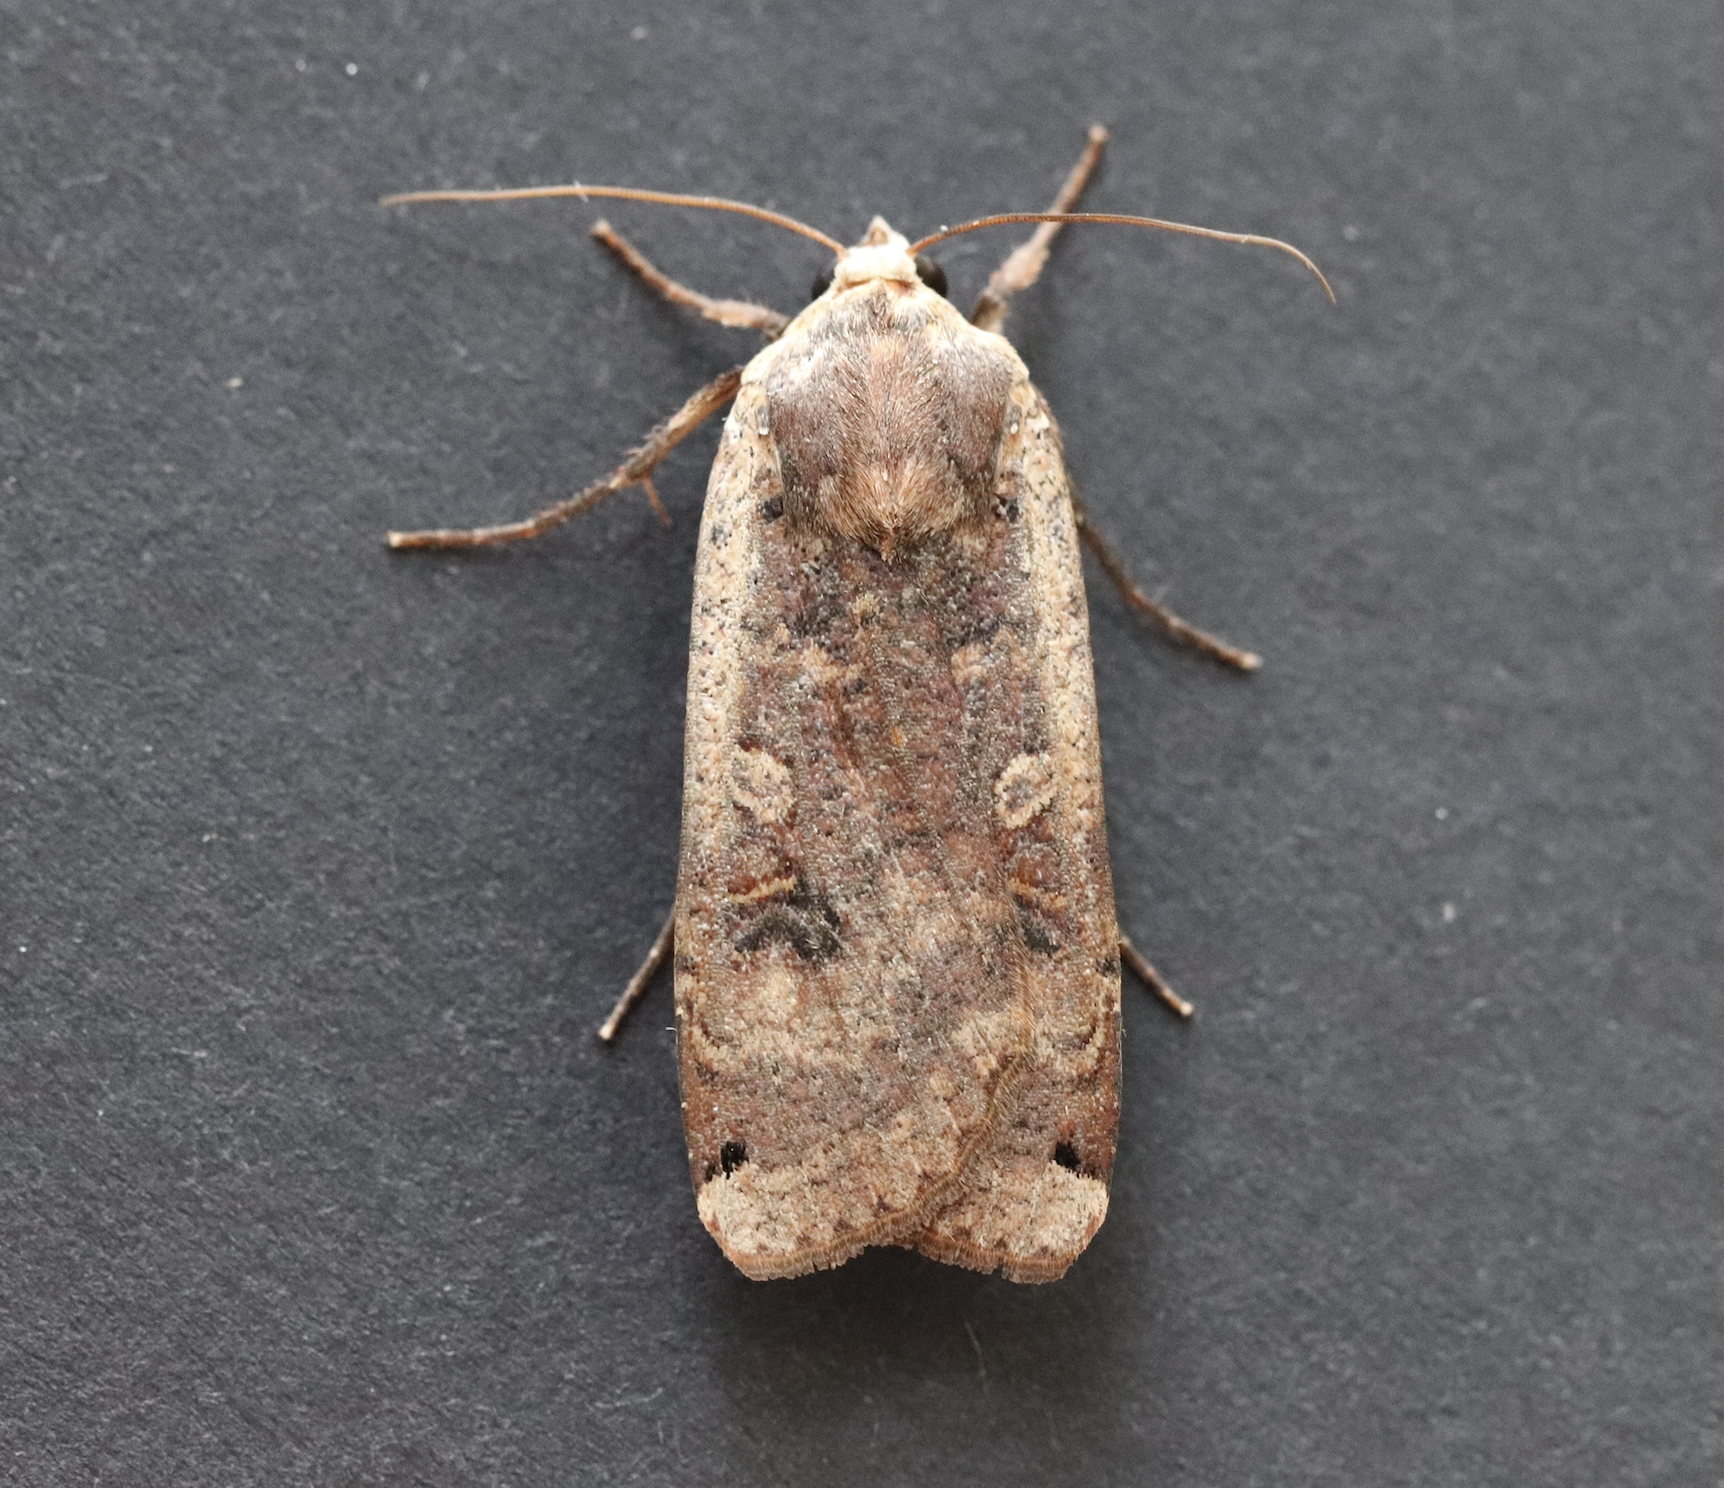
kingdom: Animalia
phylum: Arthropoda
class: Insecta
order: Lepidoptera
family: Noctuidae
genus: Noctua
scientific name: Noctua pronuba
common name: Large yellow underwing
